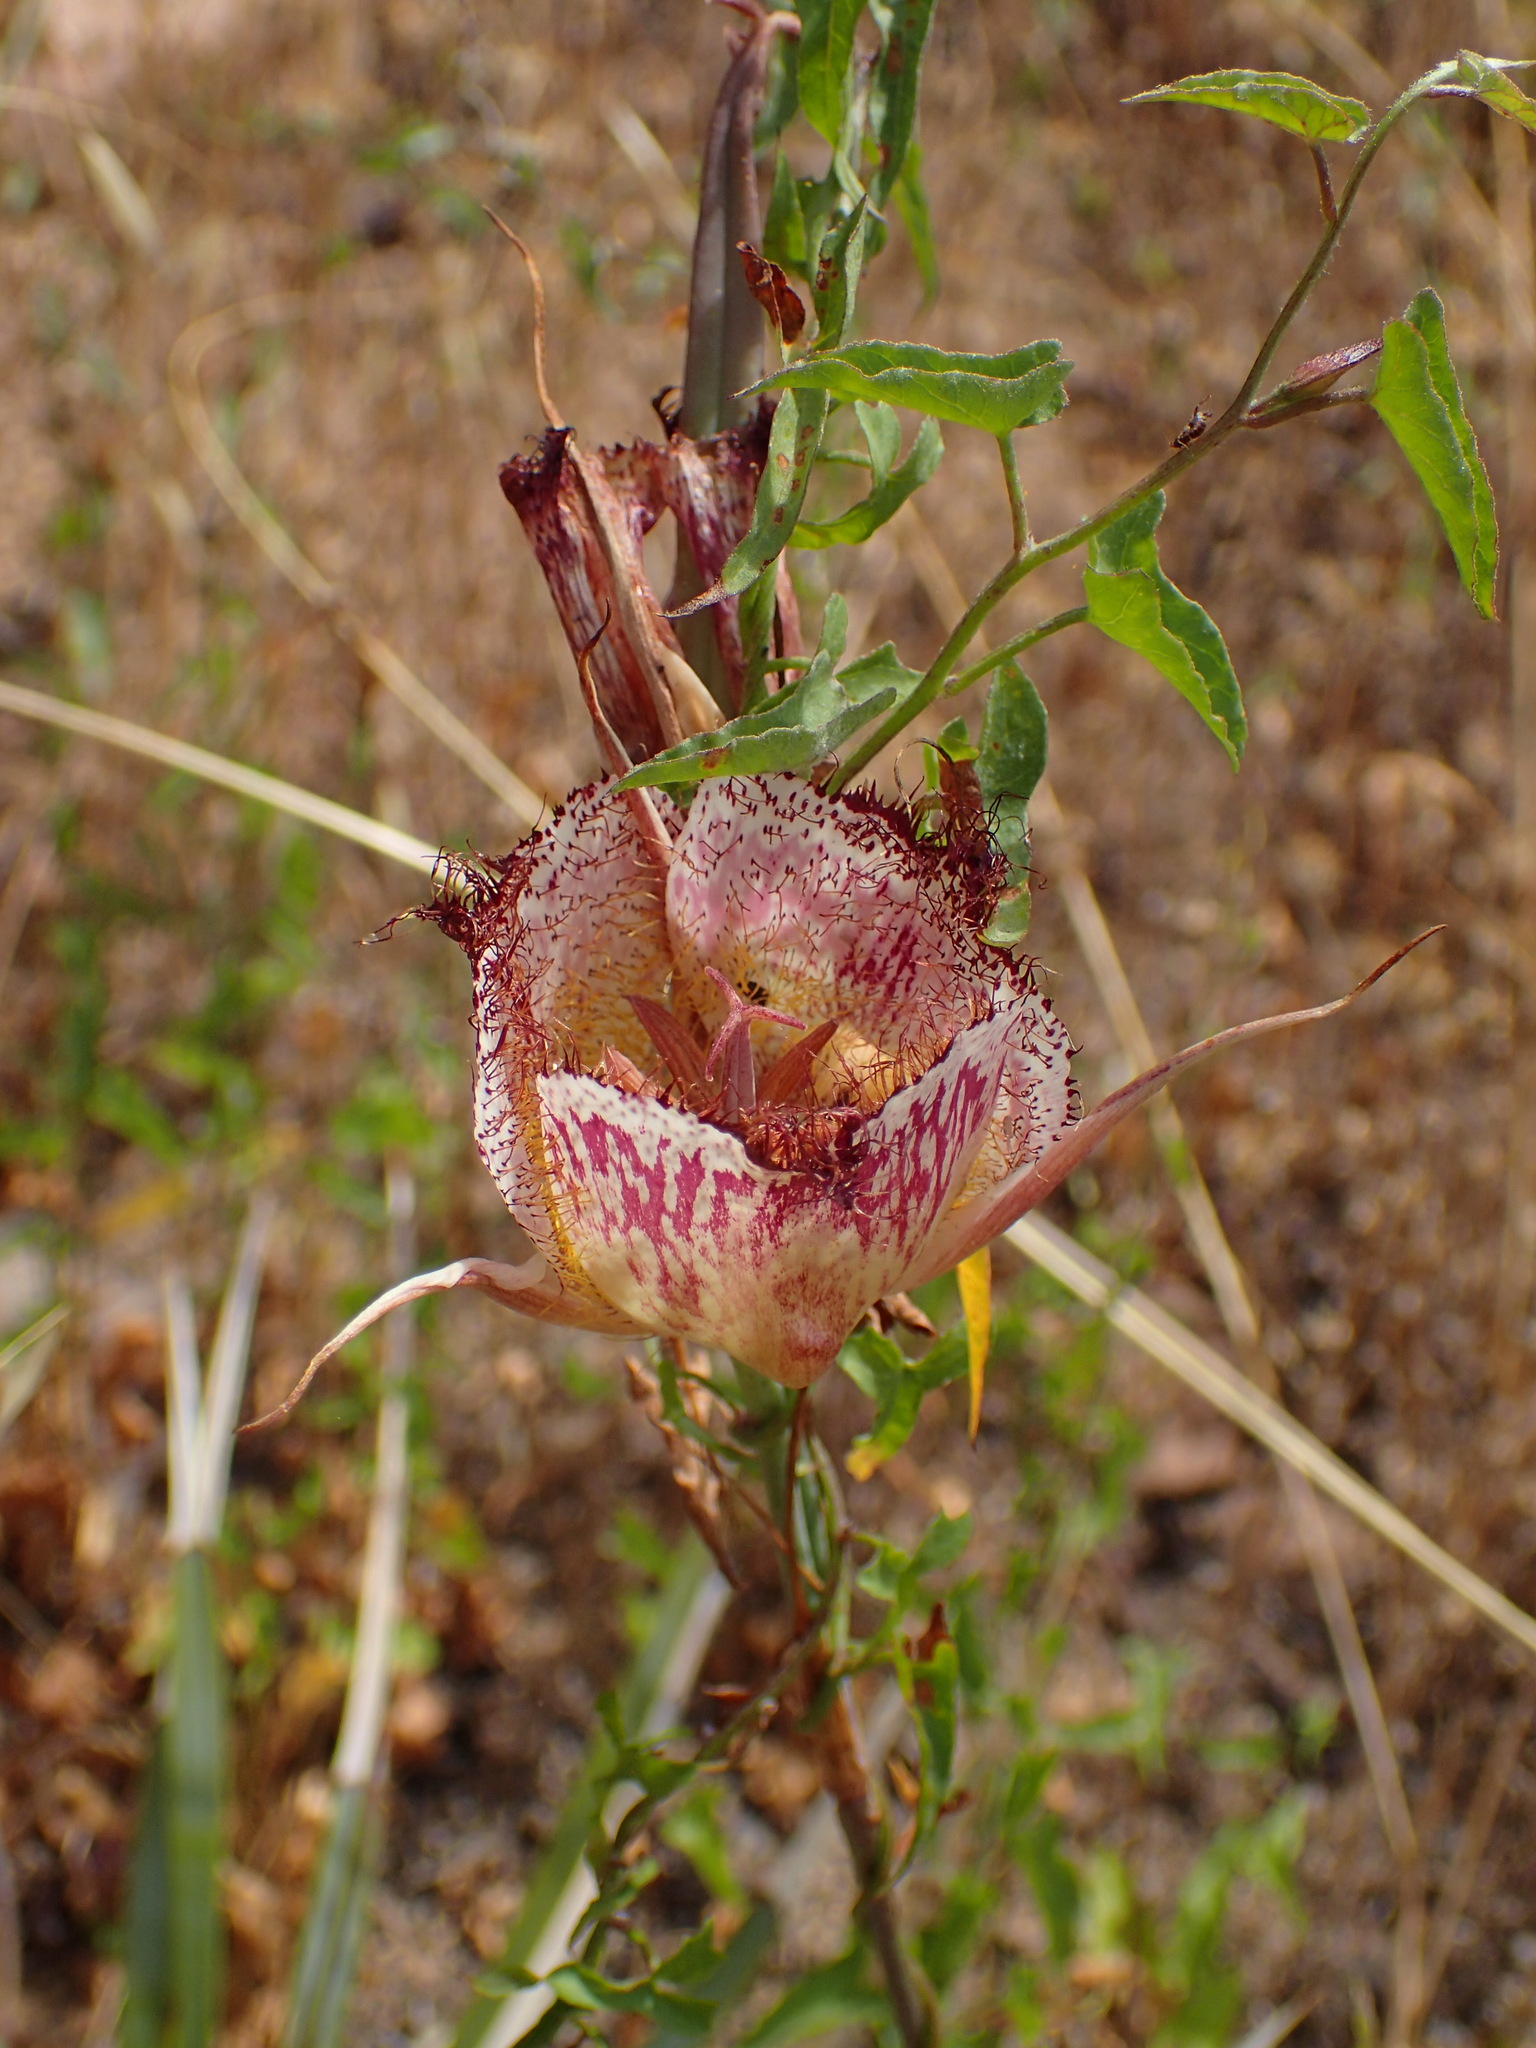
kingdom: Plantae
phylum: Tracheophyta
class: Liliopsida
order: Liliales
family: Liliaceae
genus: Calochortus
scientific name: Calochortus fimbriatus
